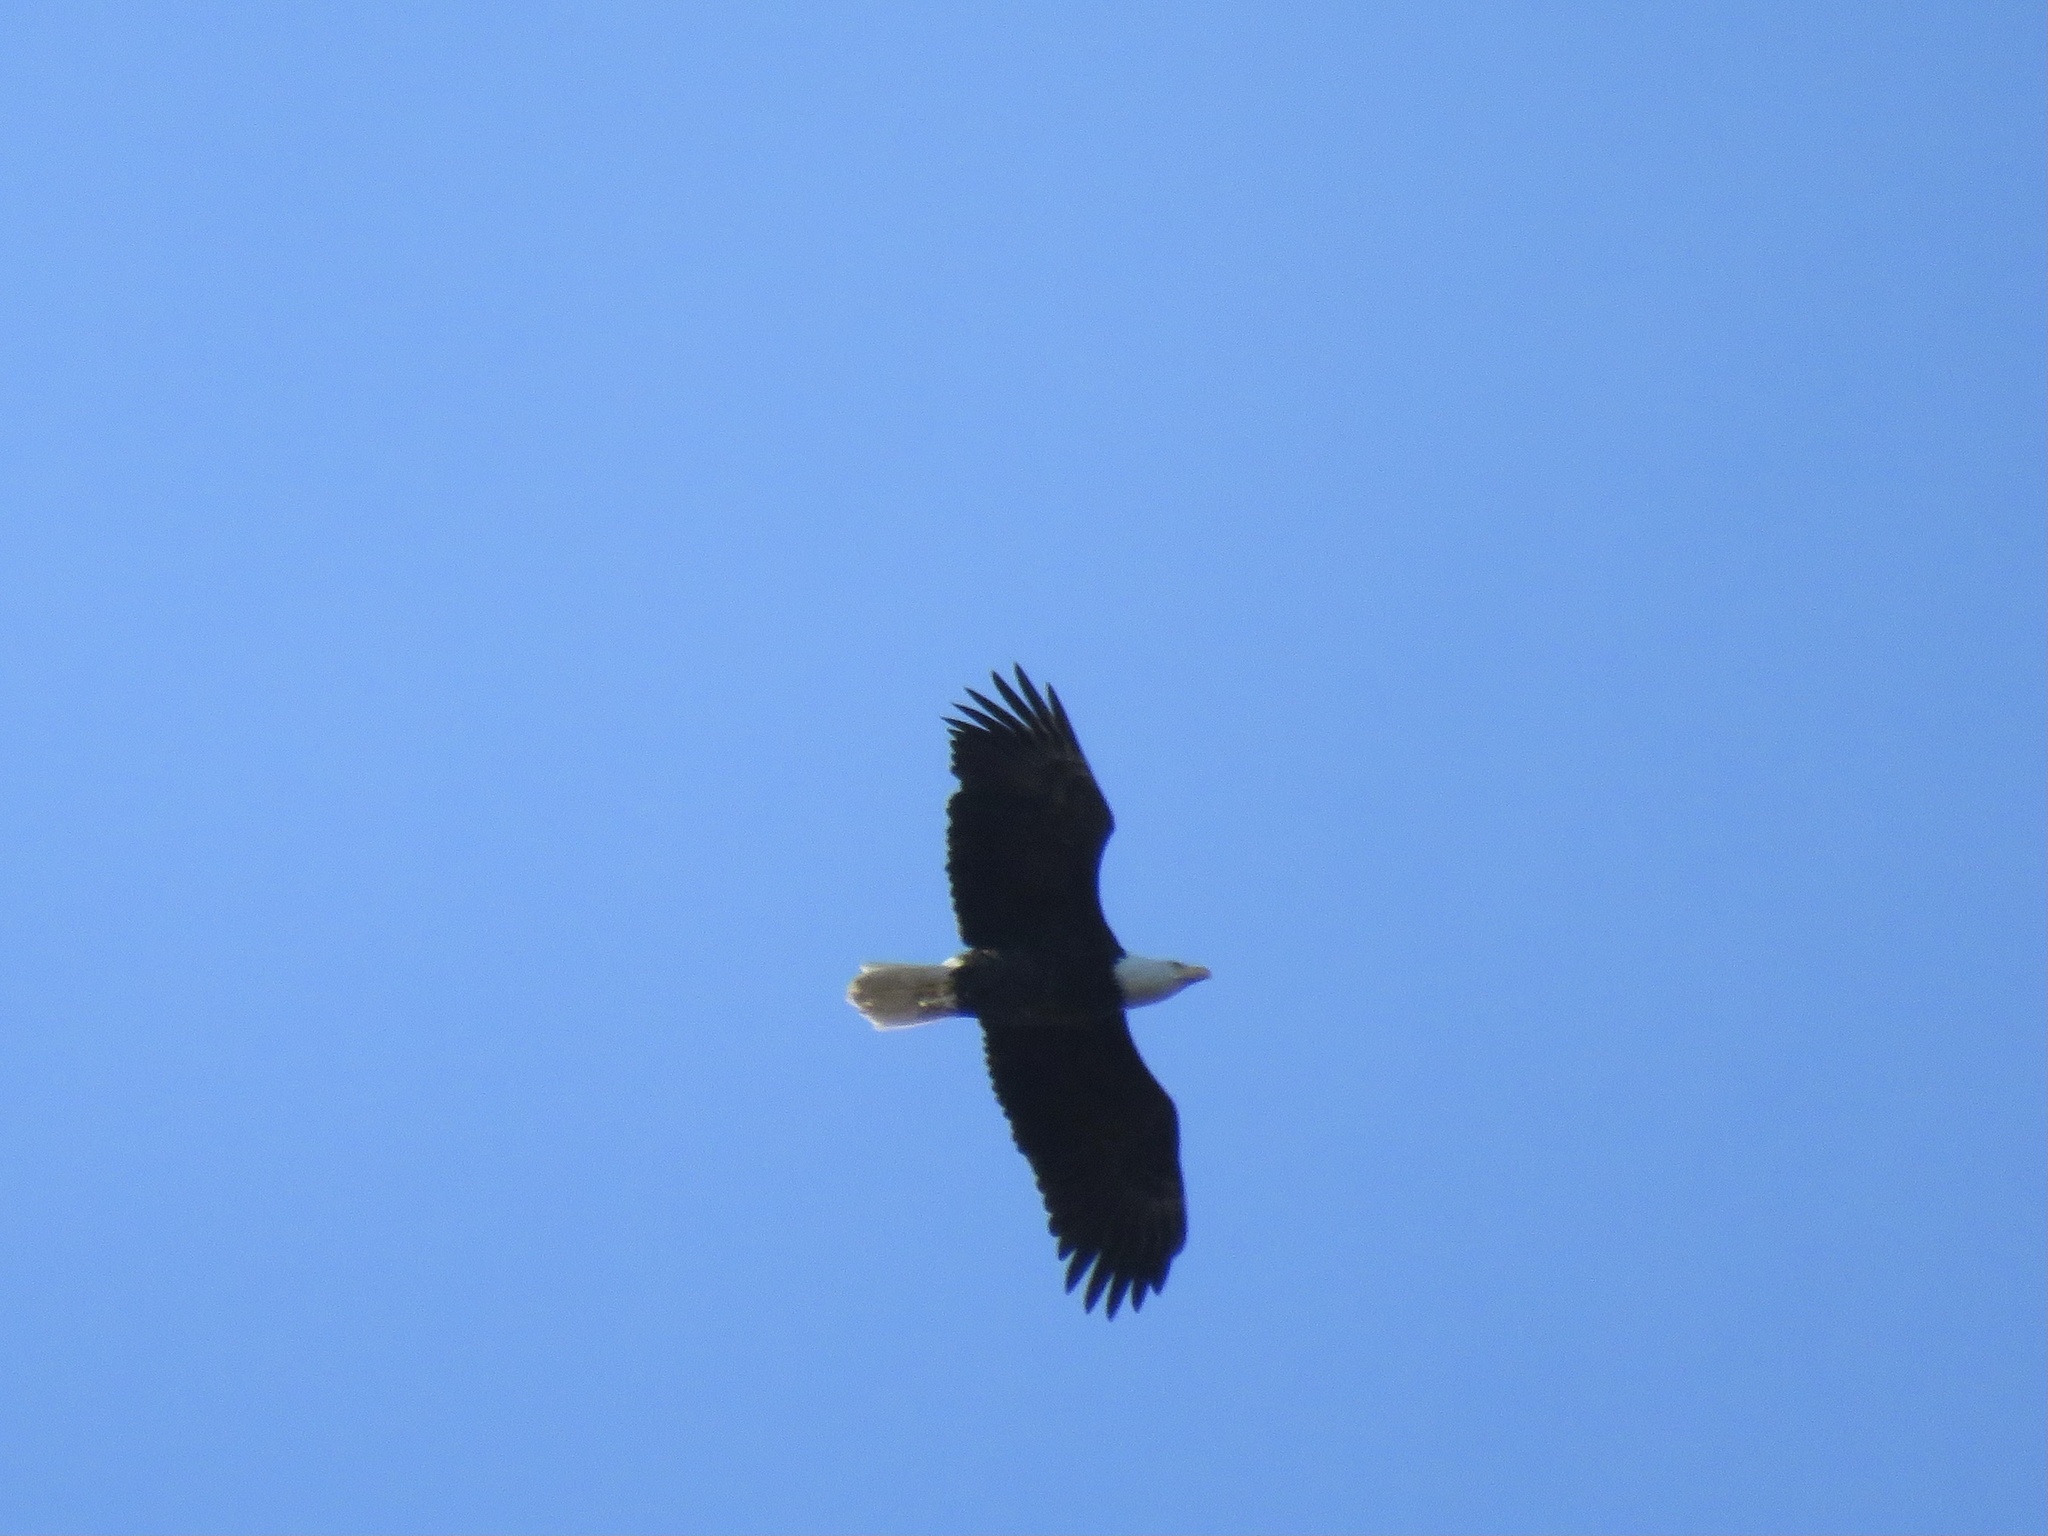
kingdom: Animalia
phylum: Chordata
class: Aves
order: Accipitriformes
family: Accipitridae
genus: Haliaeetus
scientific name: Haliaeetus leucocephalus
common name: Bald eagle
